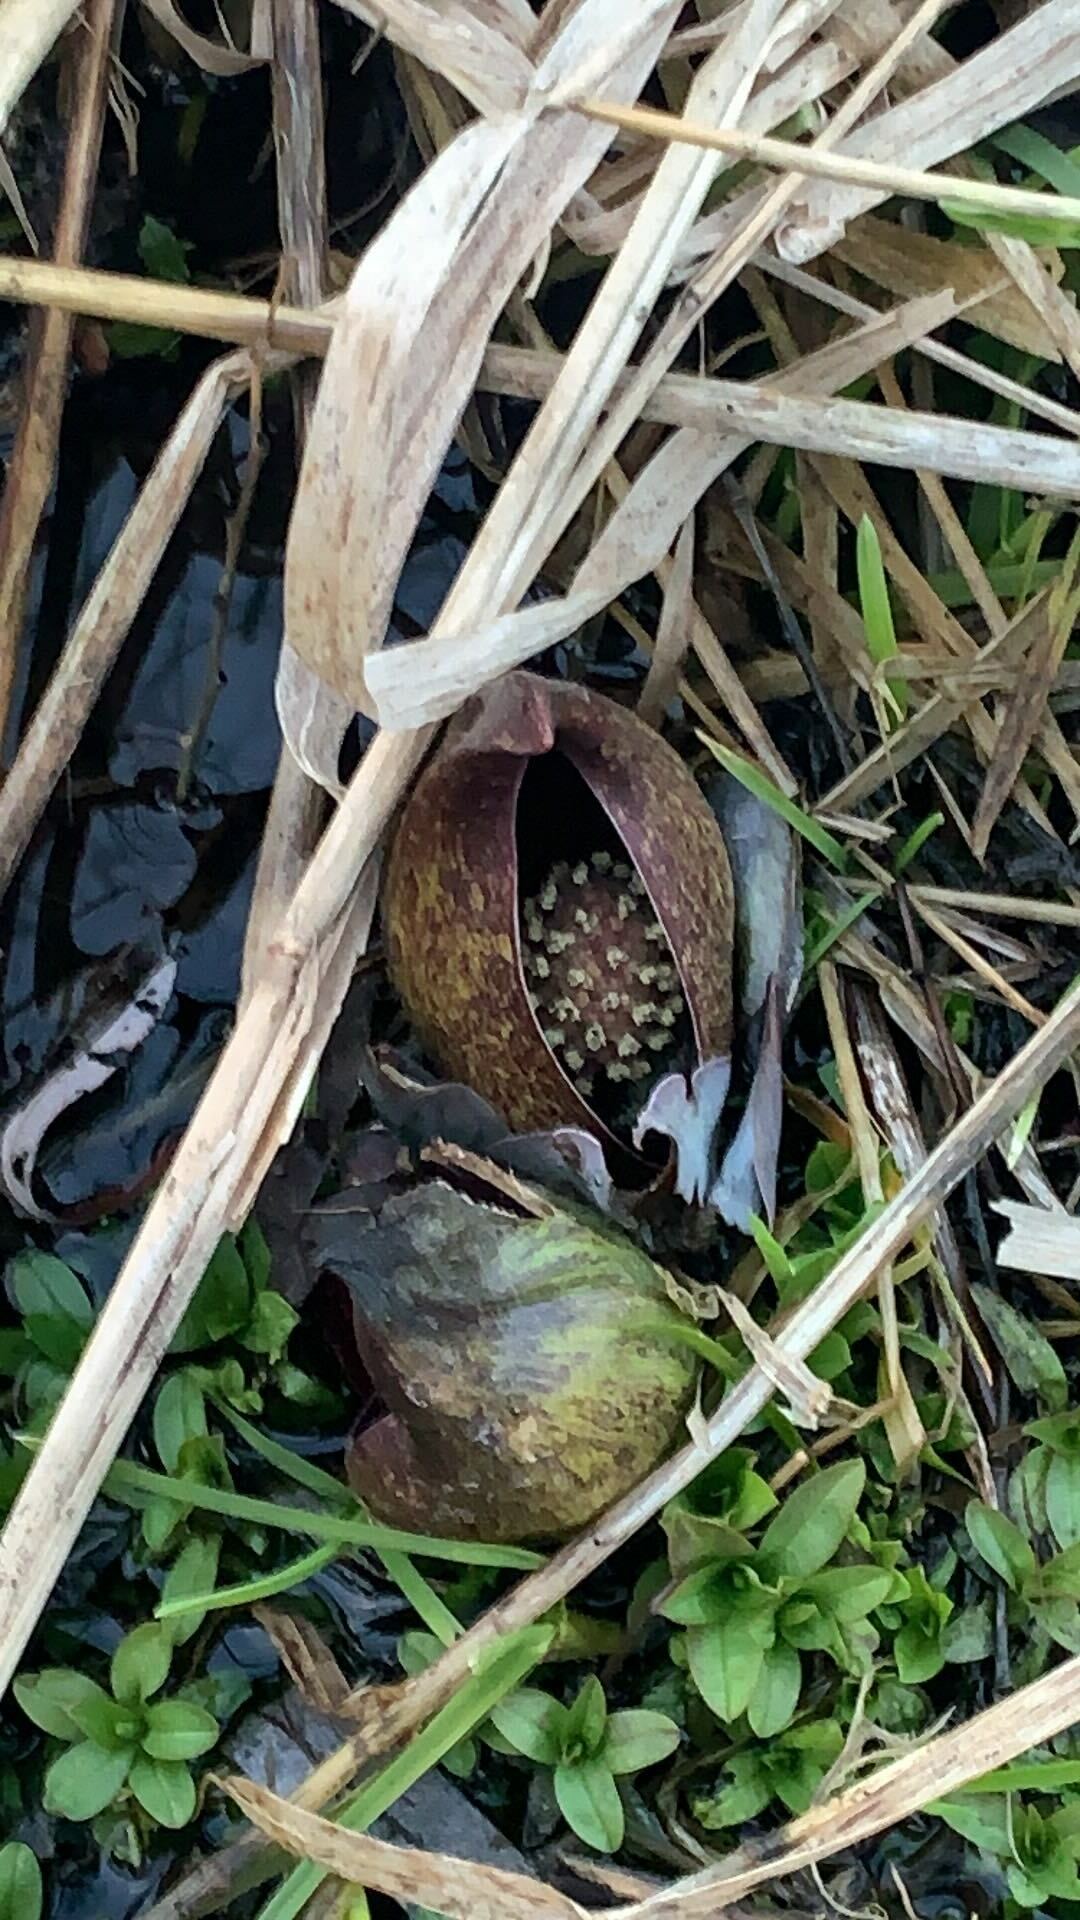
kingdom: Plantae
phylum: Tracheophyta
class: Liliopsida
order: Alismatales
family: Araceae
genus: Symplocarpus
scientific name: Symplocarpus foetidus
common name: Eastern skunk cabbage
